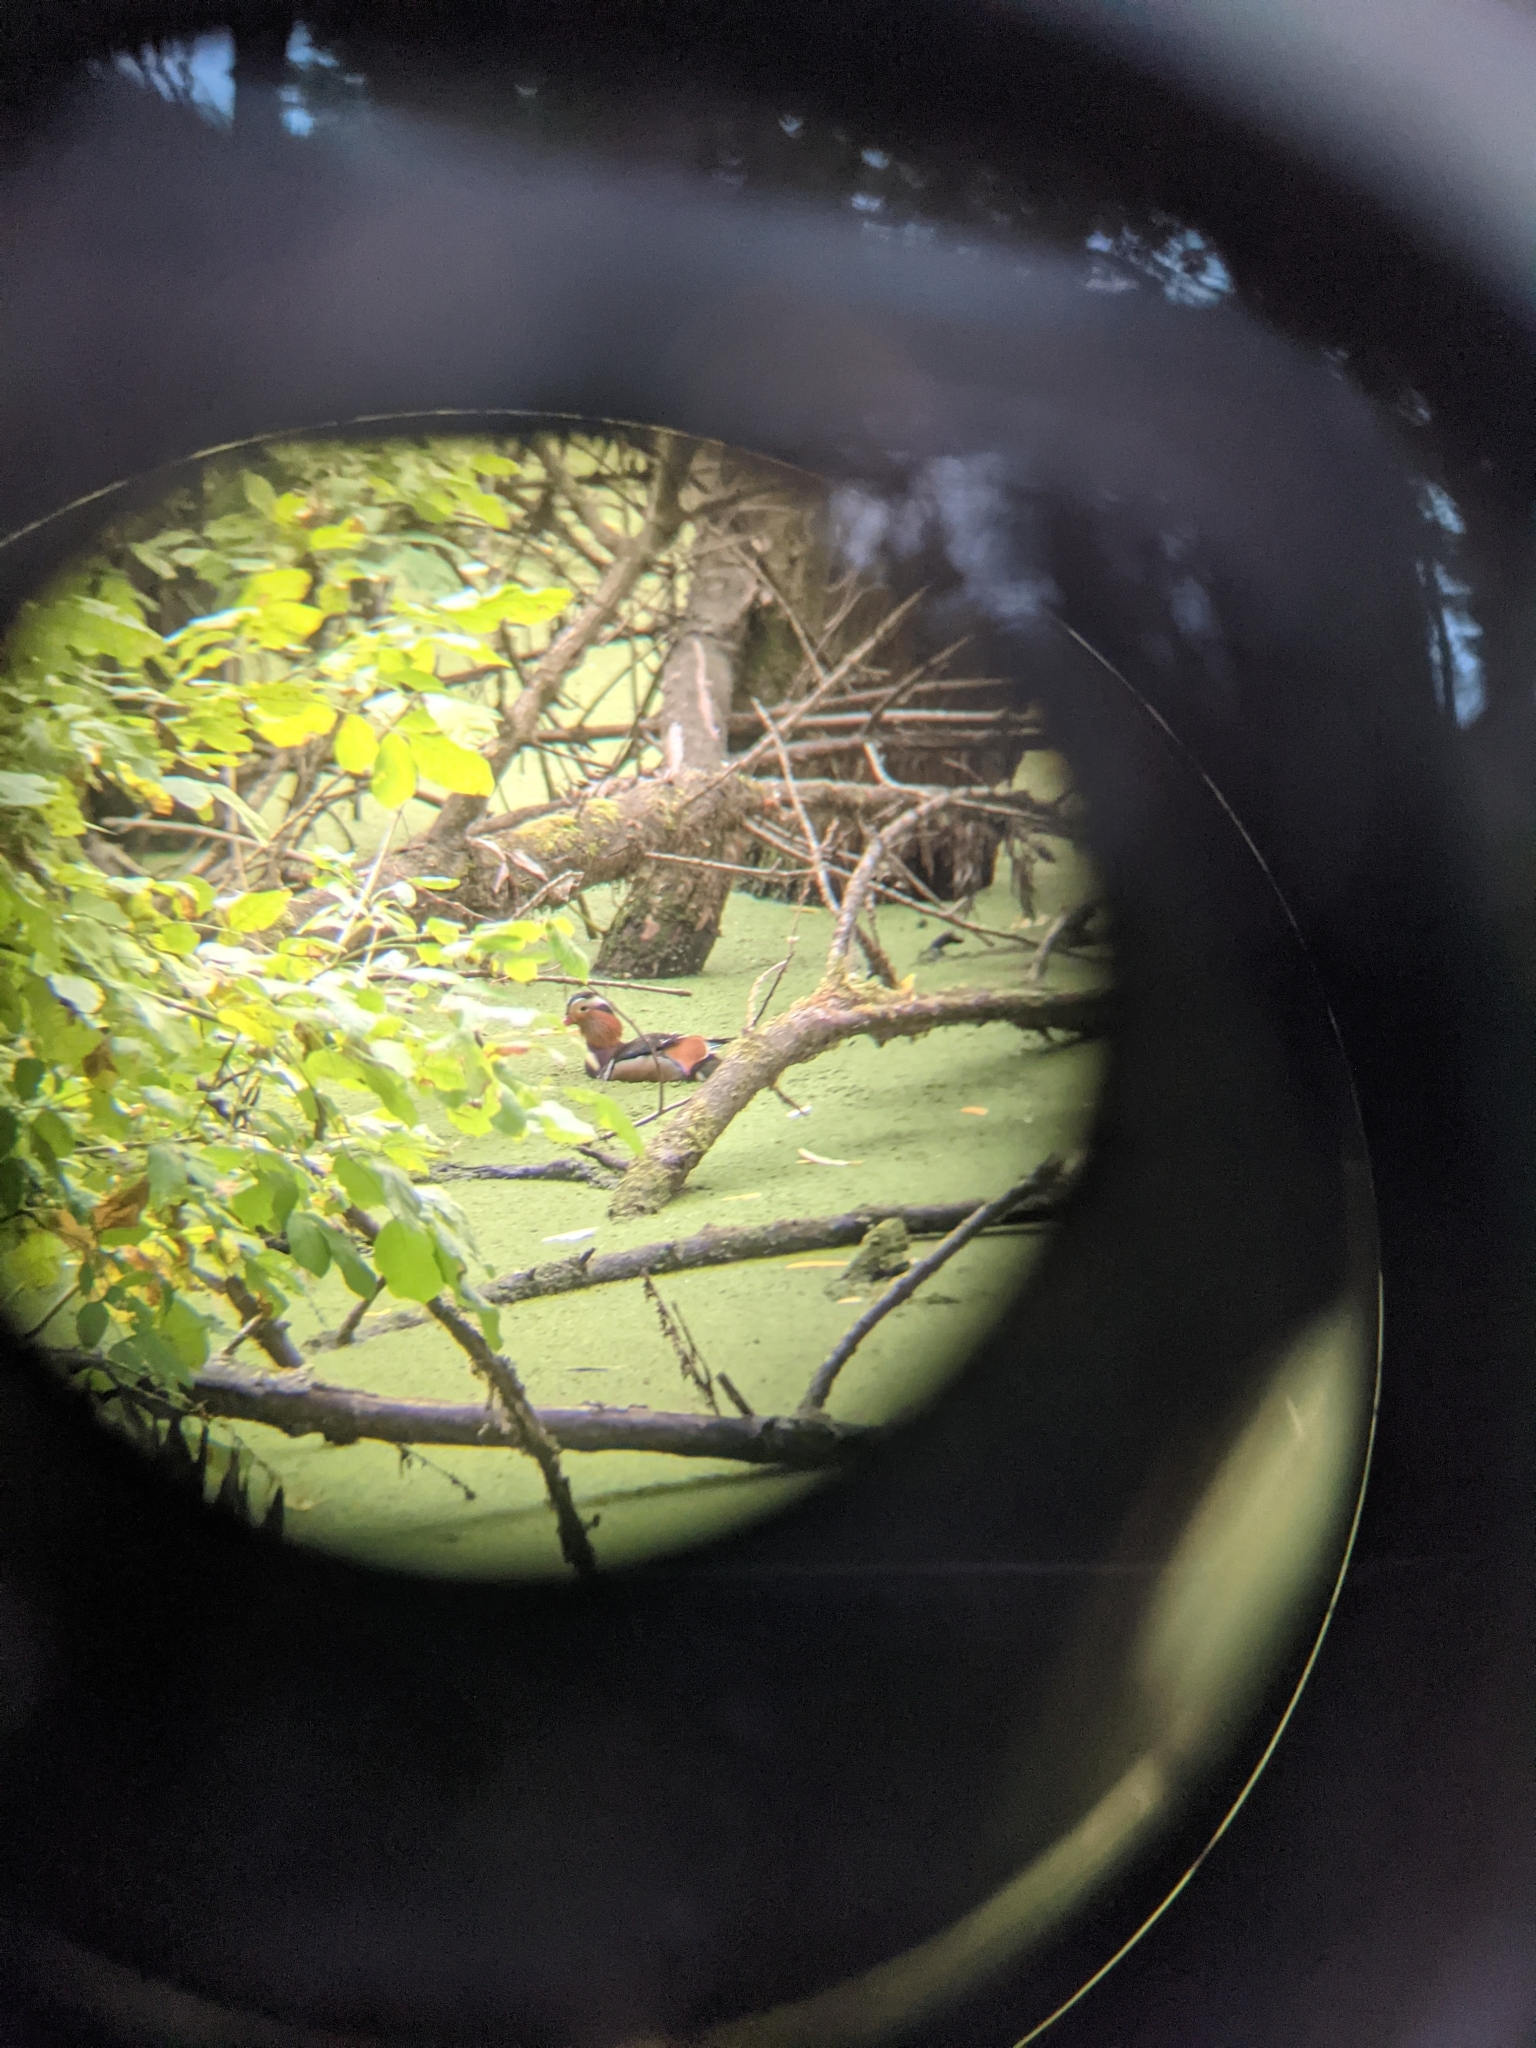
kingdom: Animalia
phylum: Chordata
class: Aves
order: Anseriformes
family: Anatidae
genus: Aix
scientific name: Aix galericulata
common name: Mandarin duck
